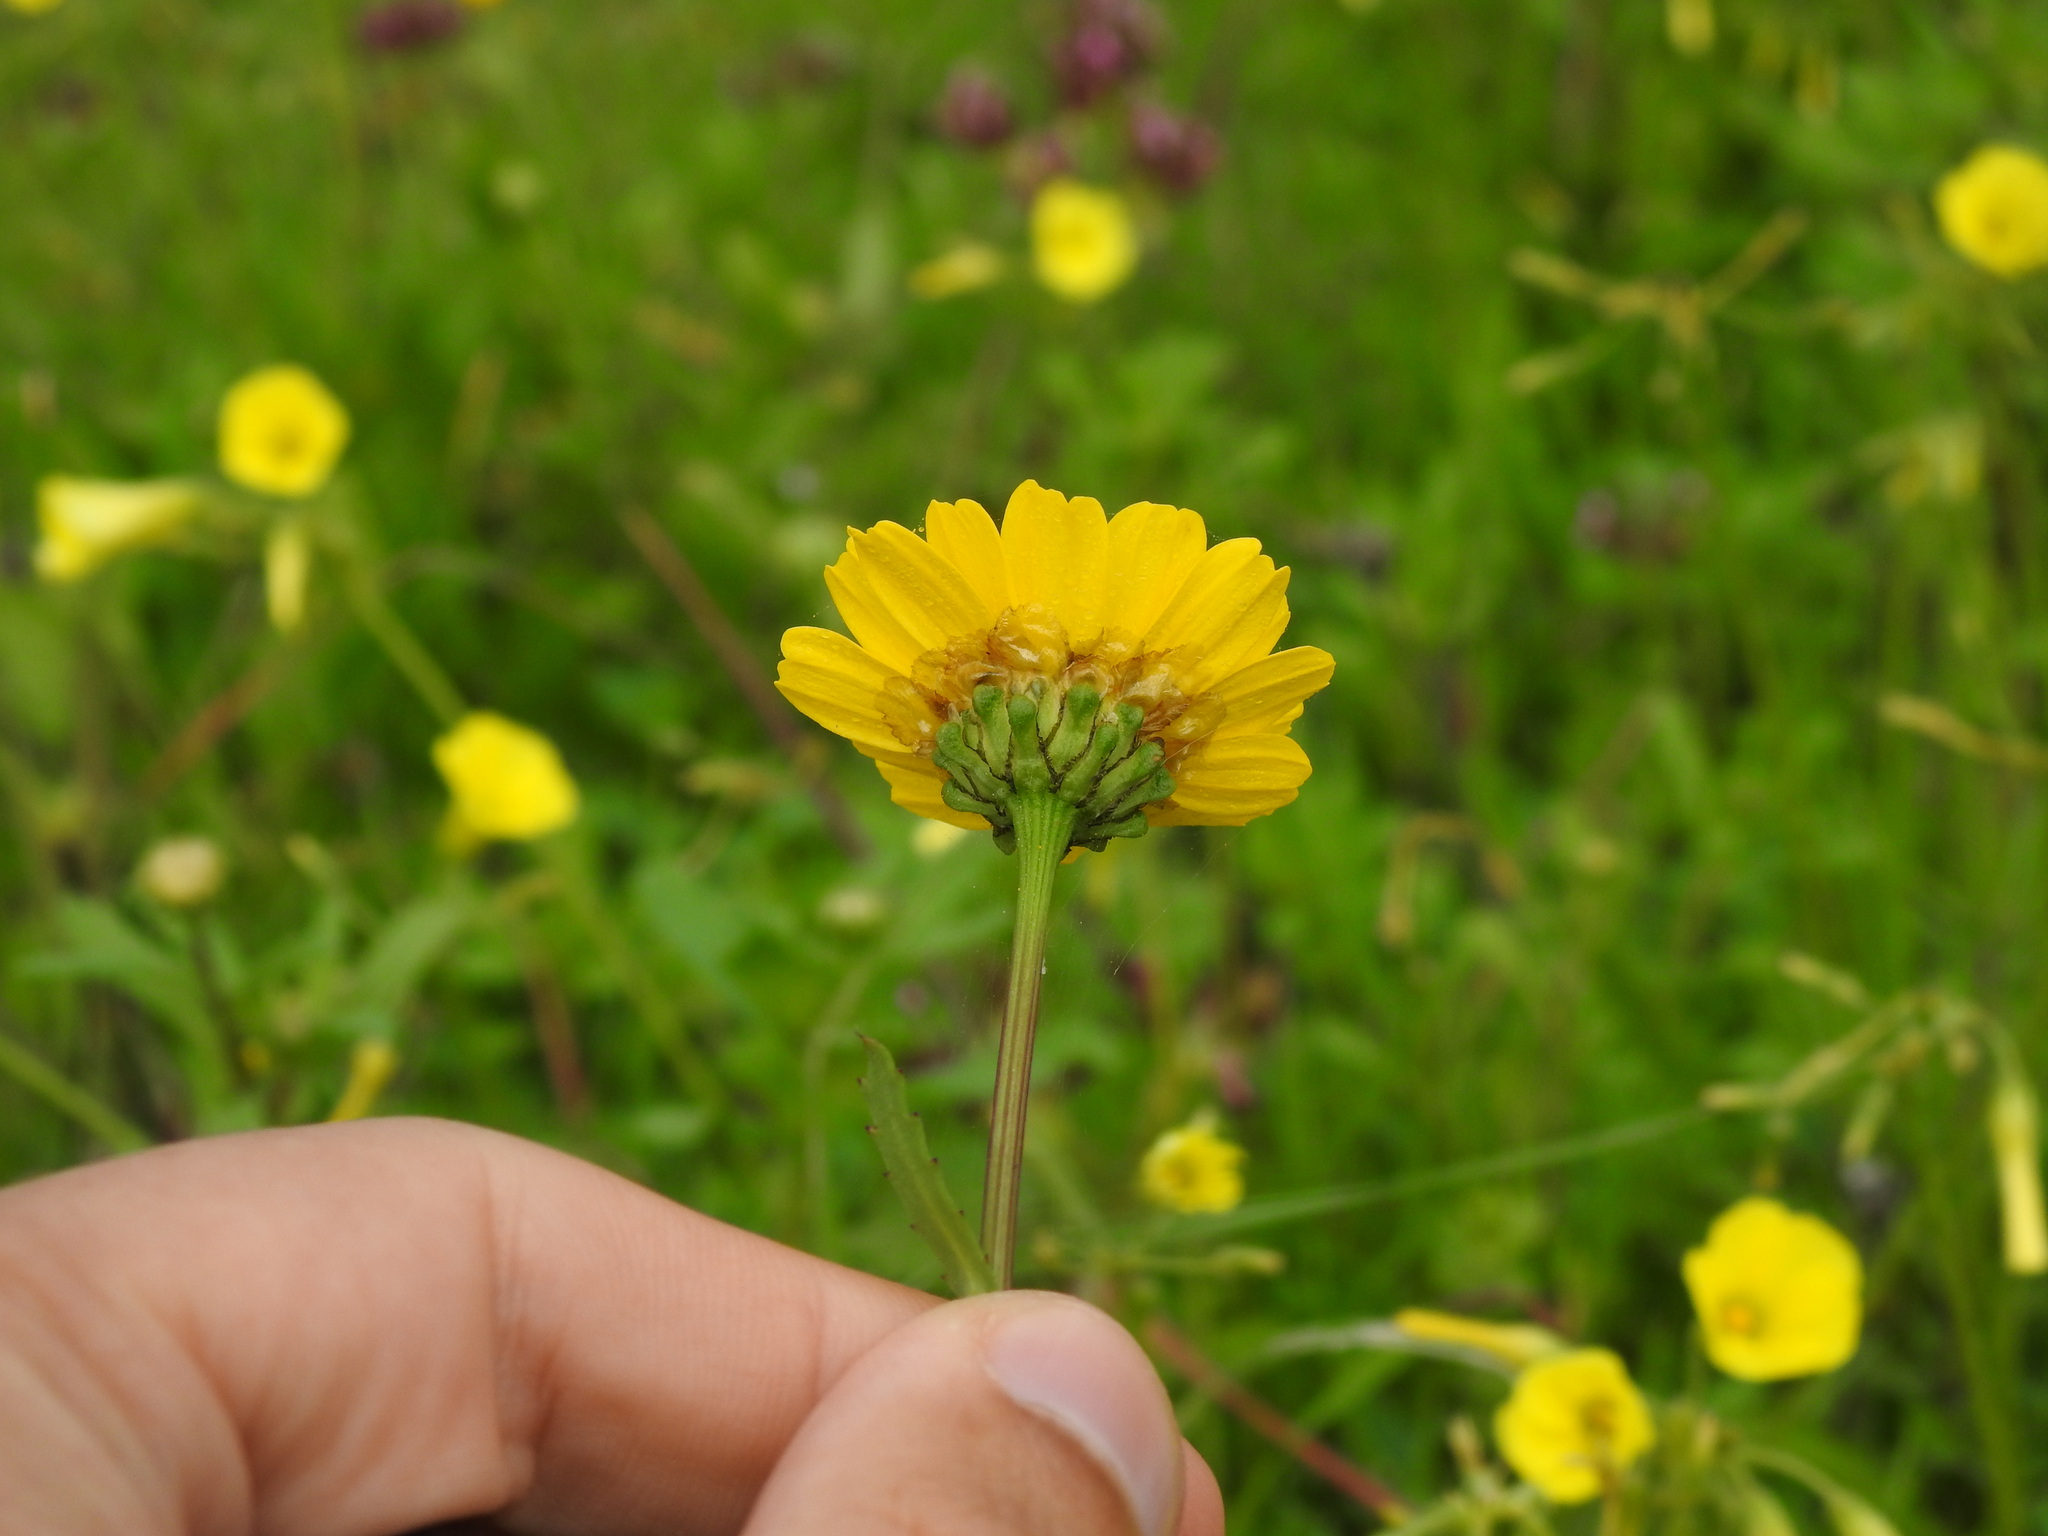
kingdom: Plantae
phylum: Tracheophyta
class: Magnoliopsida
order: Asterales
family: Asteraceae
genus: Glossopappus
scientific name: Glossopappus macrotus
